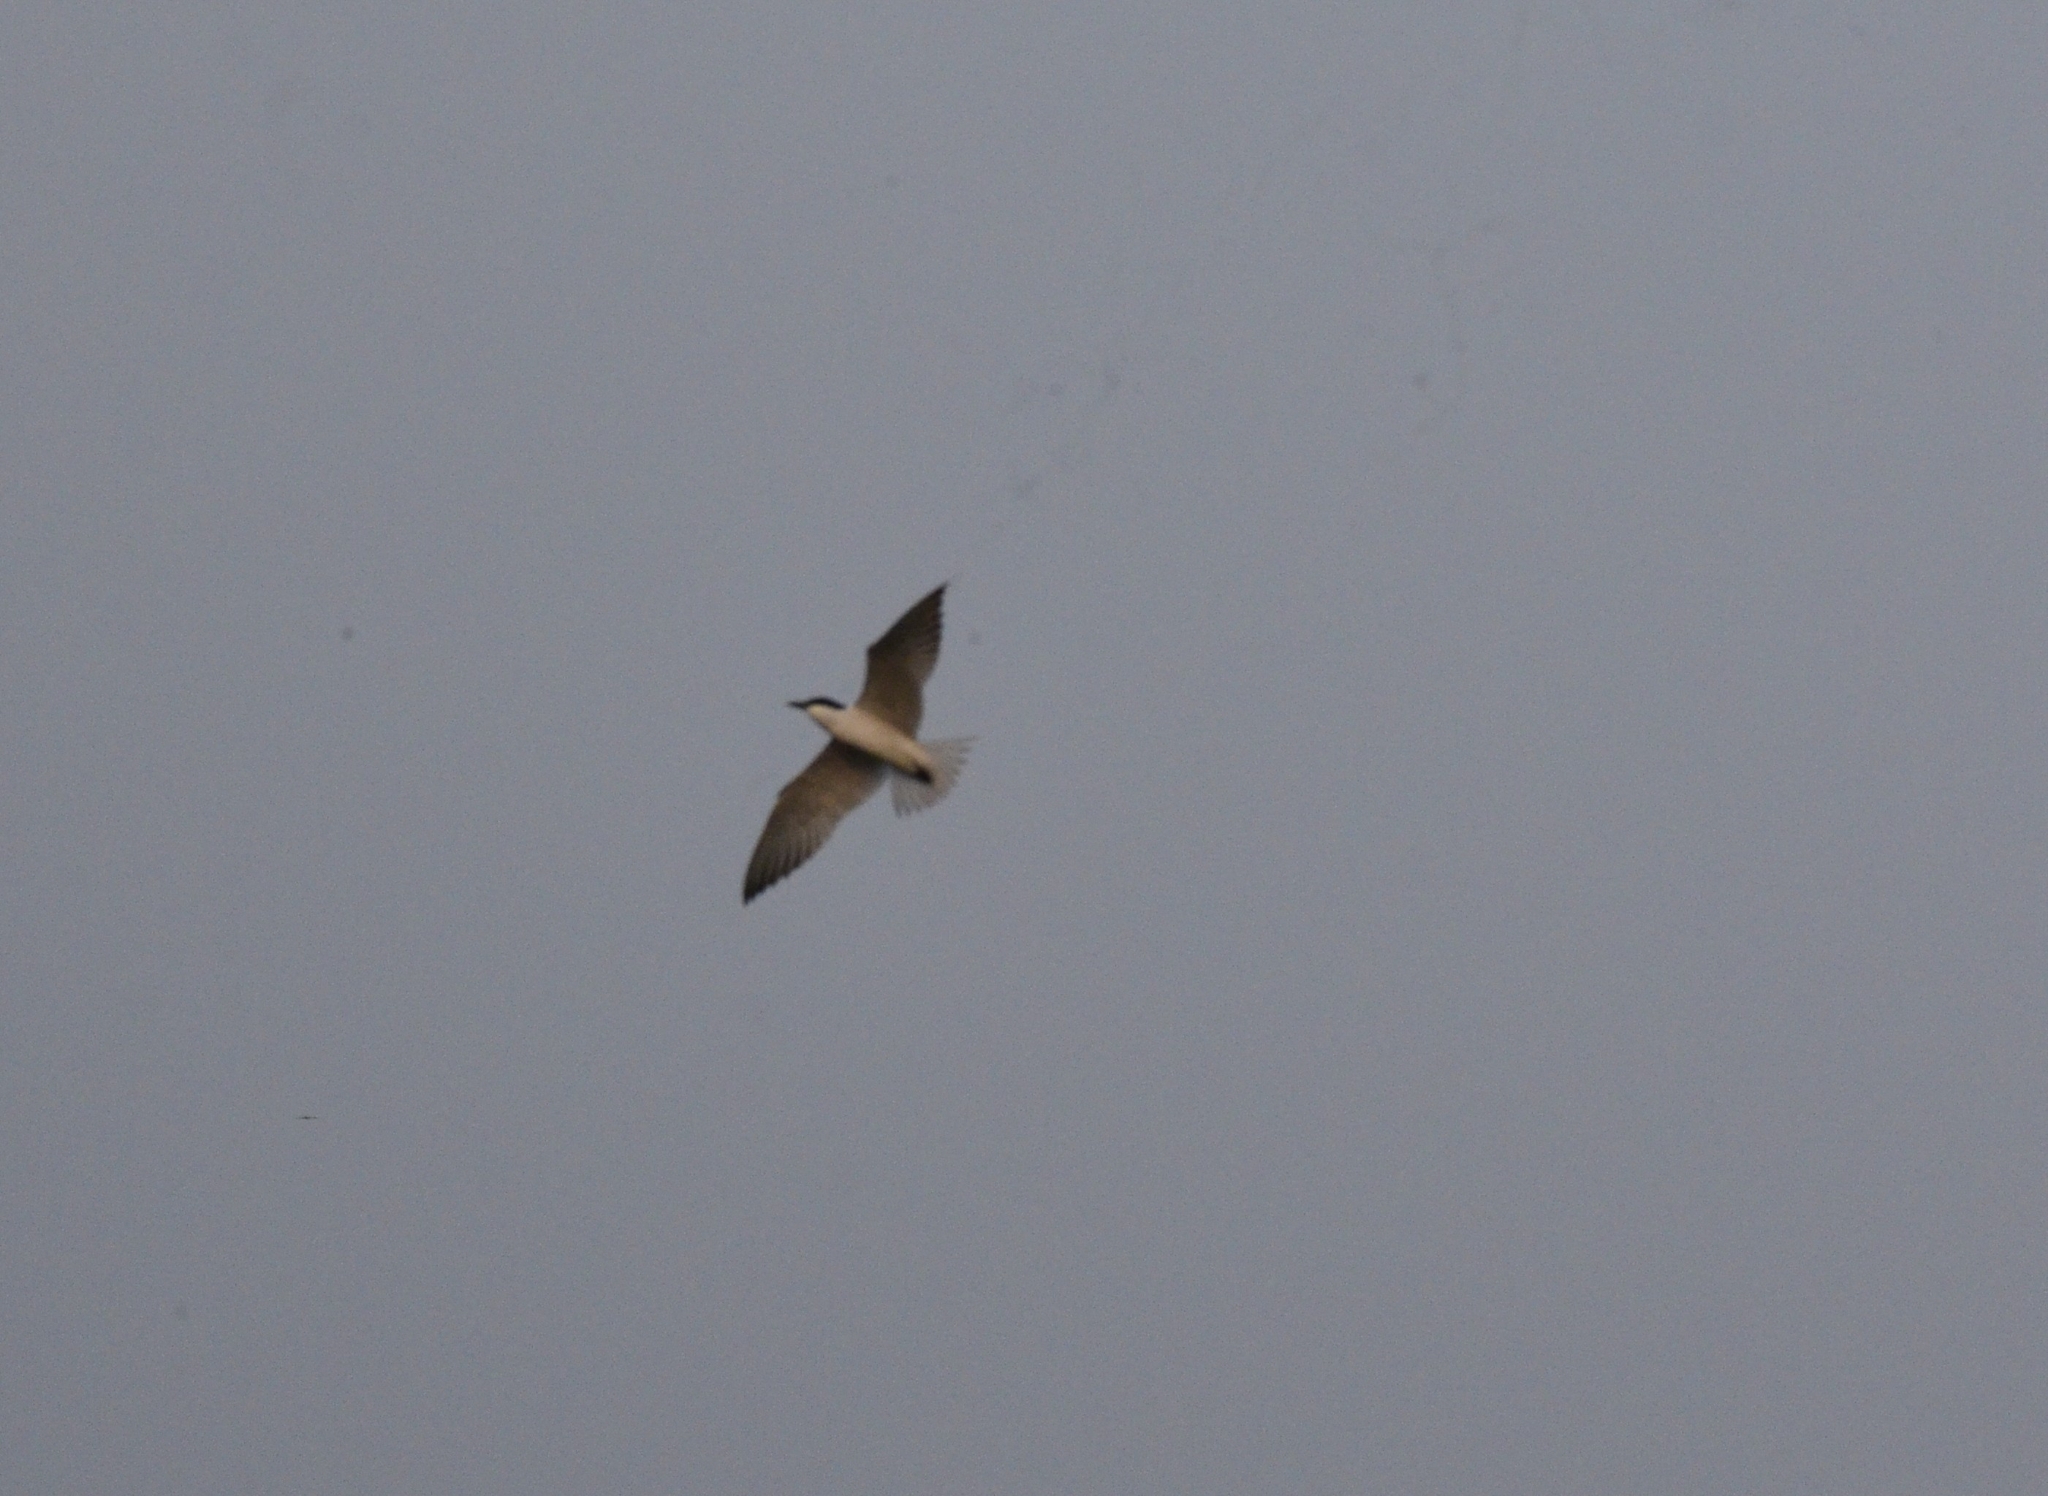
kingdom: Animalia
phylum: Chordata
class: Aves
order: Charadriiformes
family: Laridae
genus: Gelochelidon
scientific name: Gelochelidon nilotica
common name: Gull-billed tern
